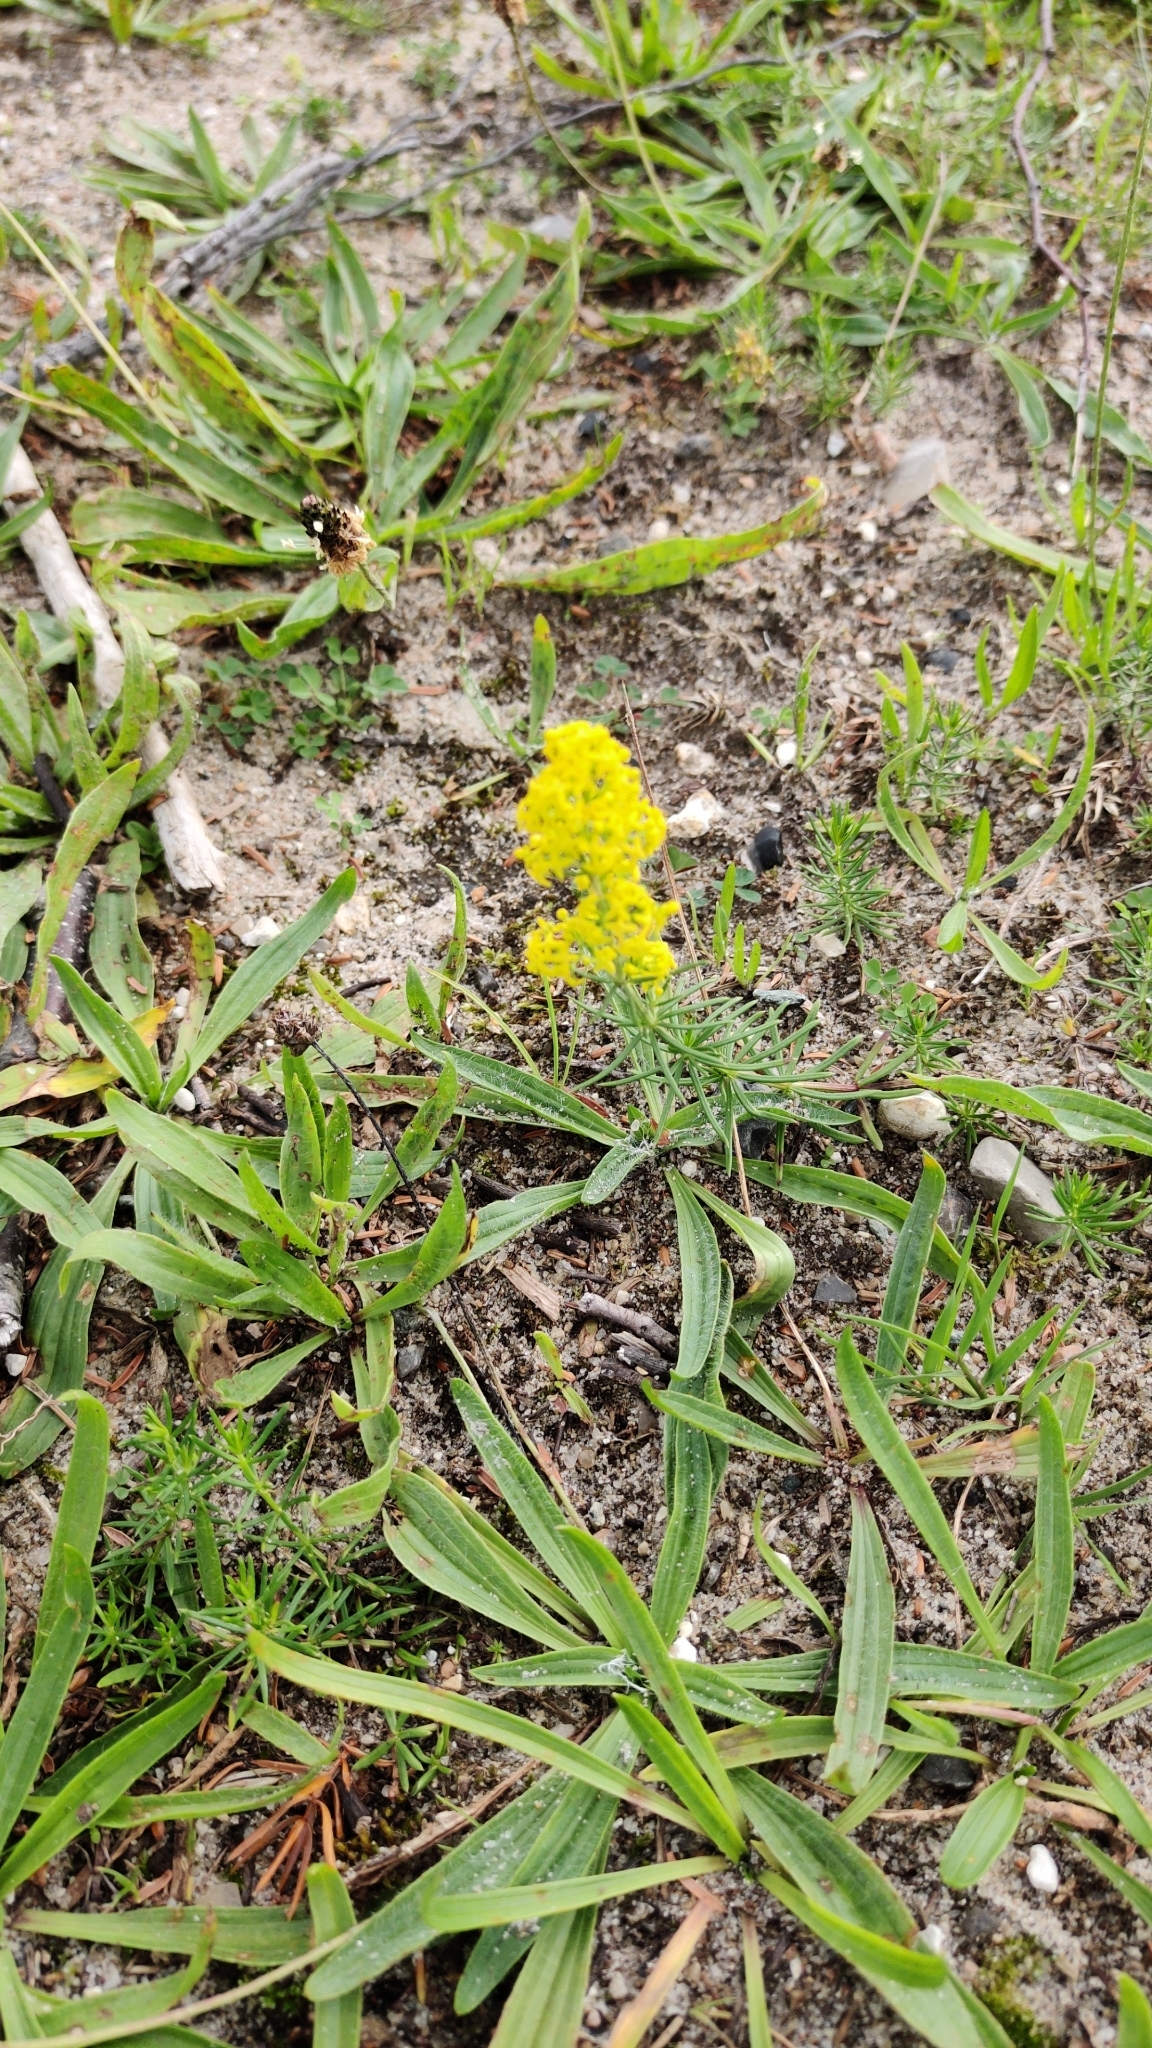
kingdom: Plantae
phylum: Tracheophyta
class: Magnoliopsida
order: Gentianales
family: Rubiaceae
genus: Galium
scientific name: Galium verum
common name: Lady's bedstraw
